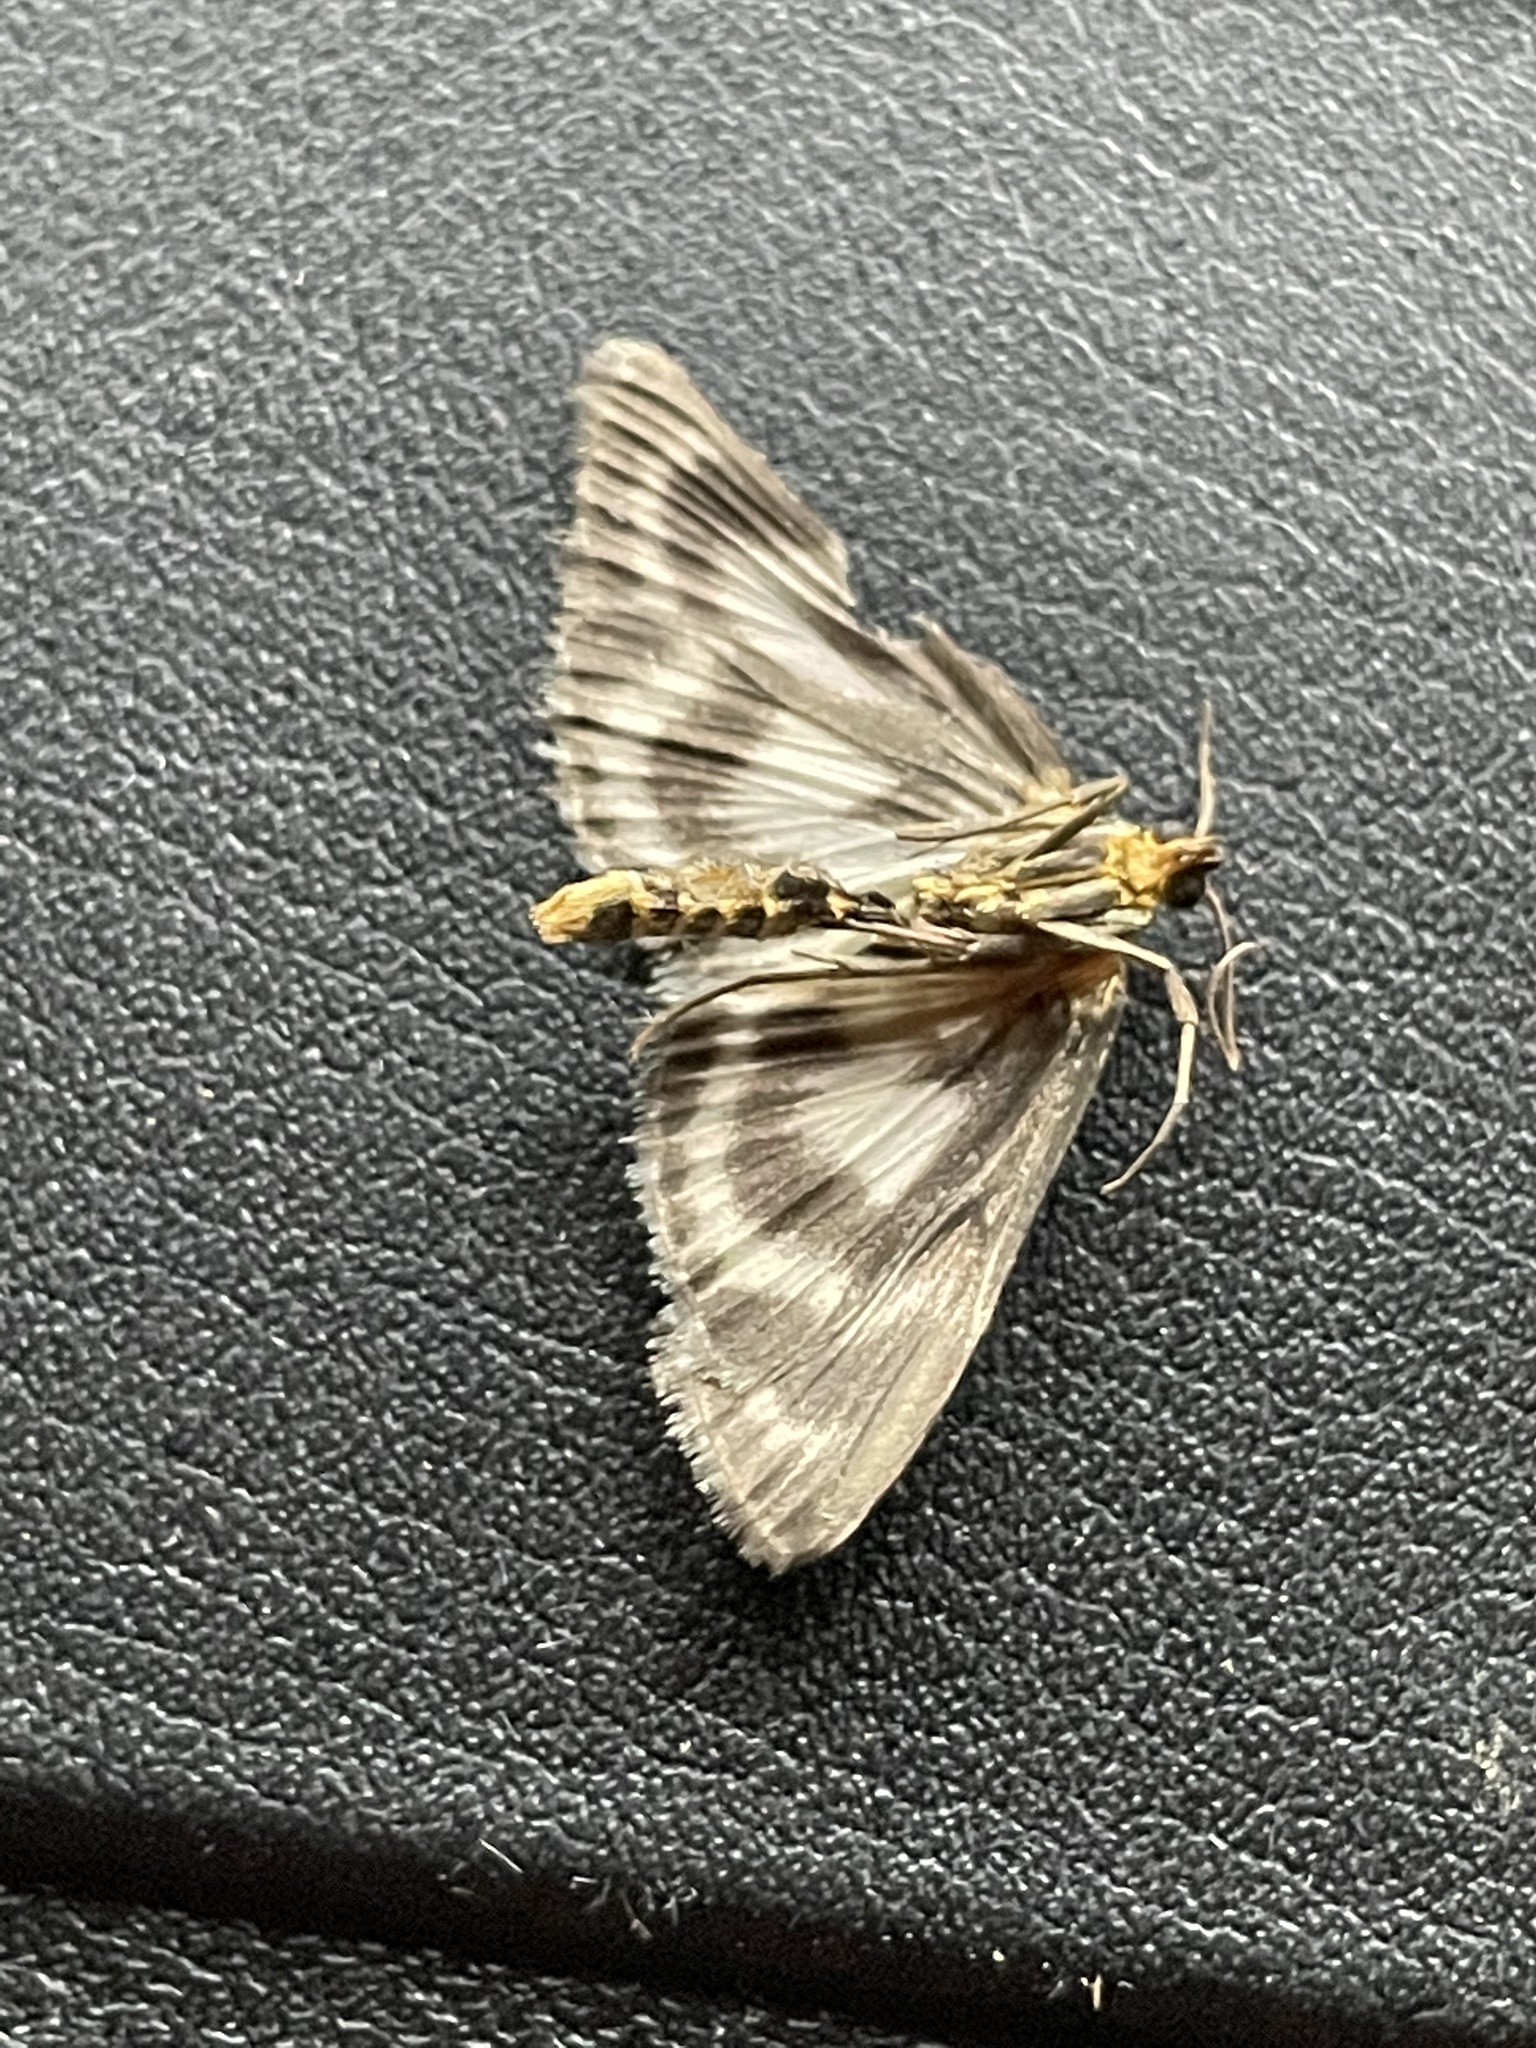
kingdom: Animalia
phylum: Arthropoda
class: Insecta
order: Lepidoptera
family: Crambidae
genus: Anania
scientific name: Anania hortulata
